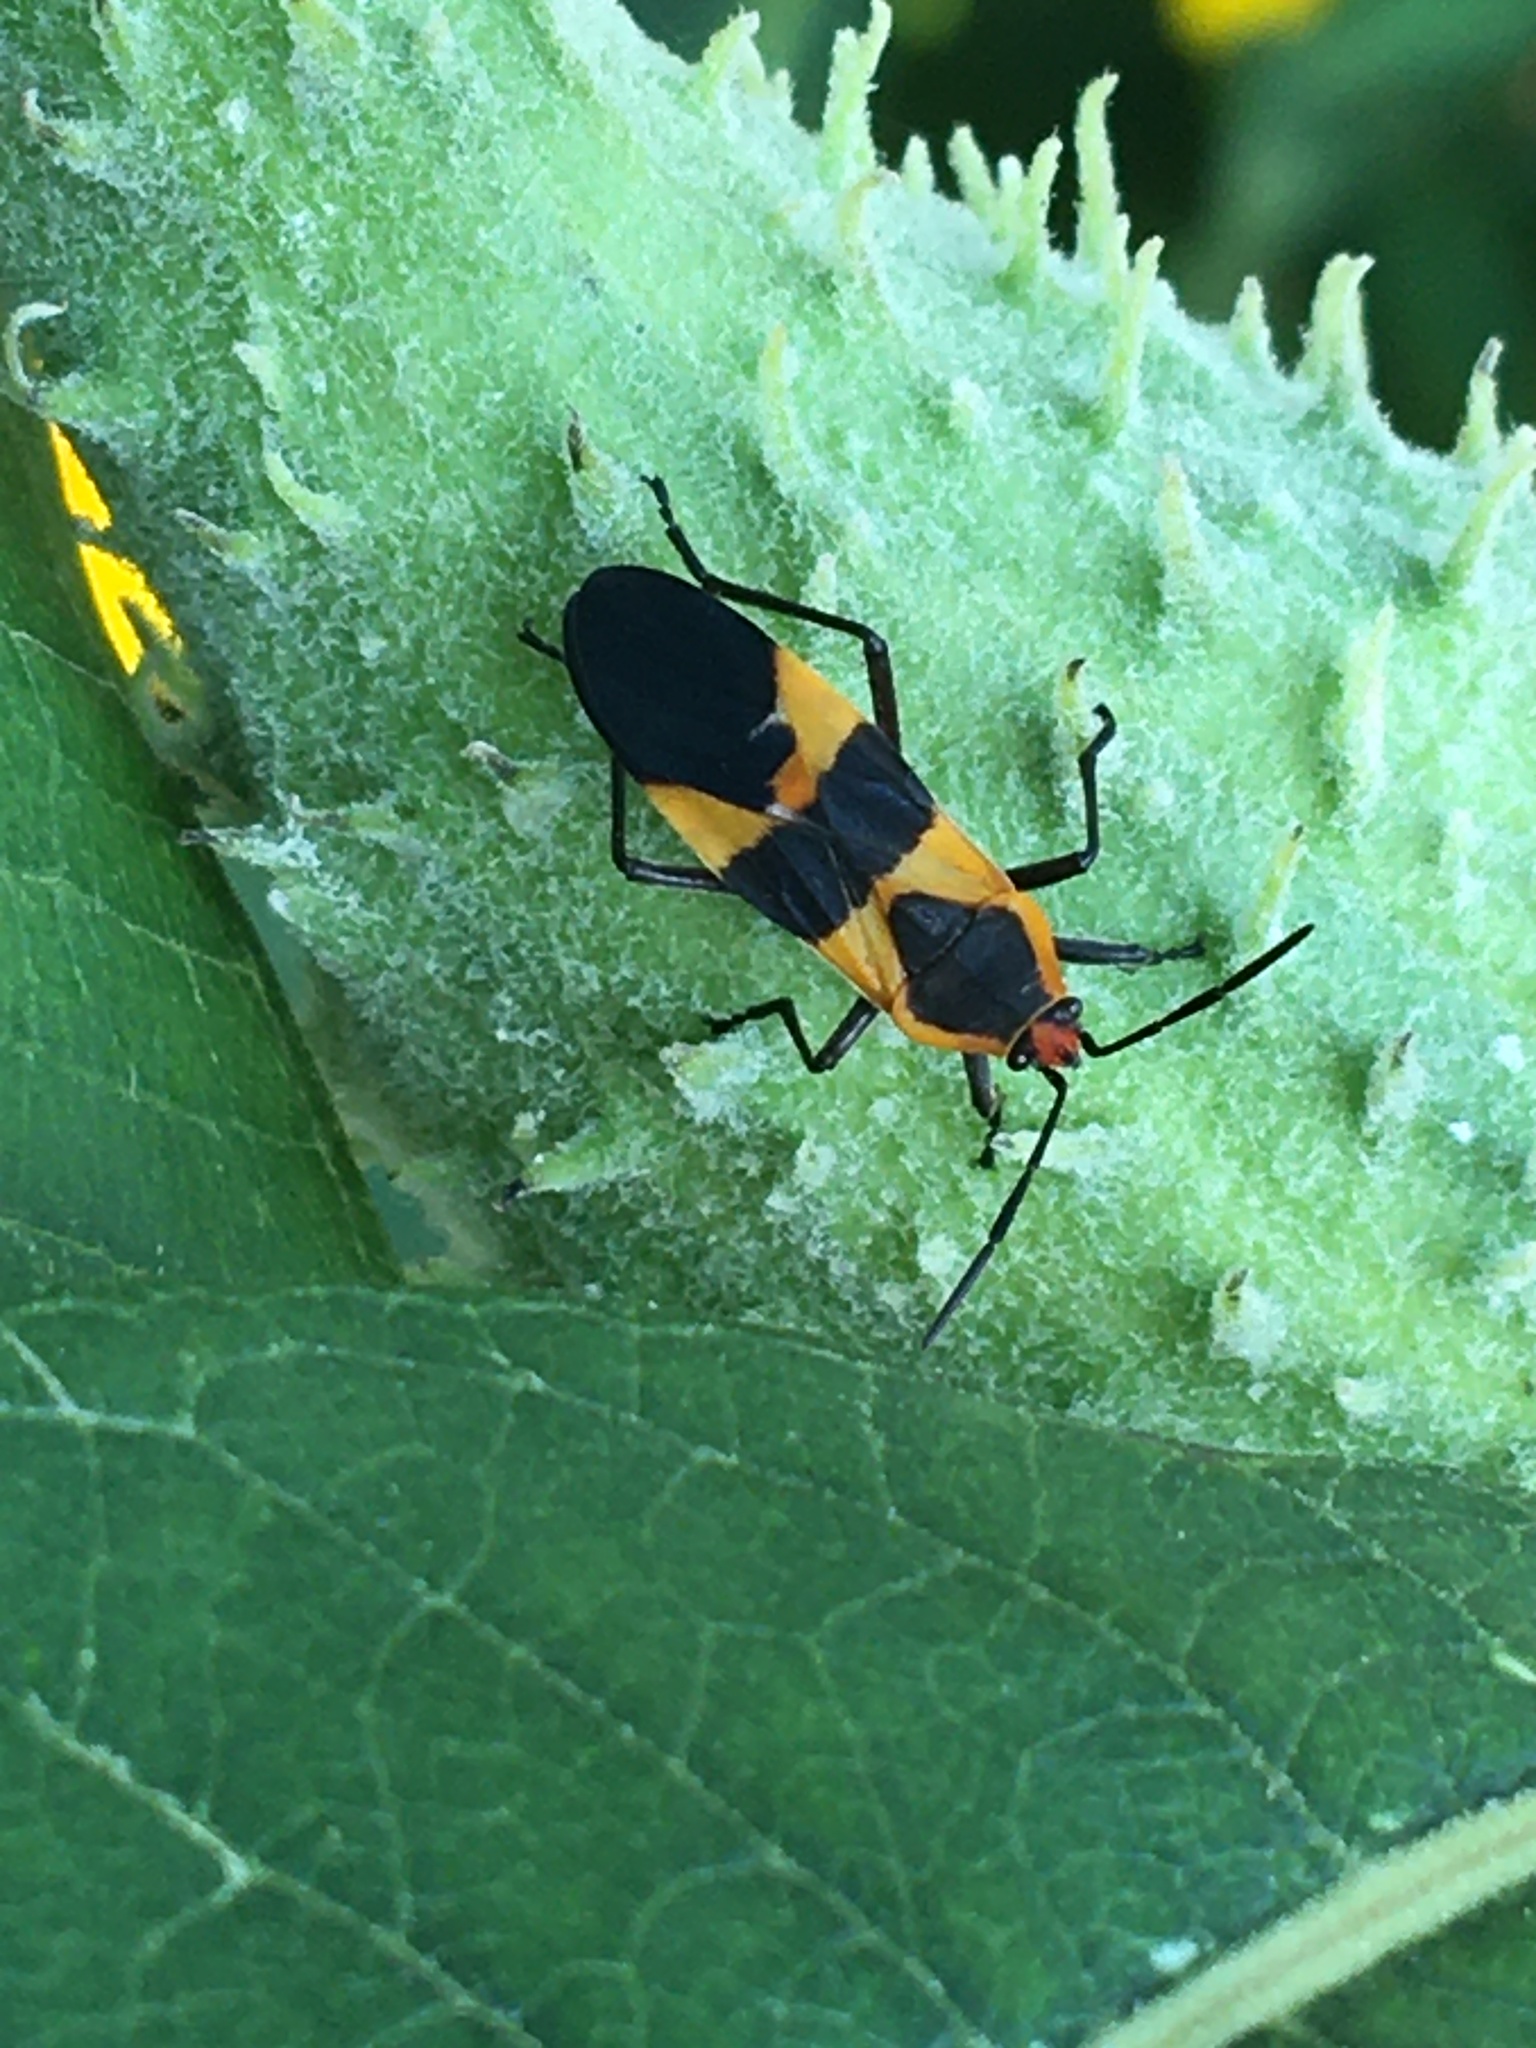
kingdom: Animalia
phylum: Arthropoda
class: Insecta
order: Hemiptera
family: Lygaeidae
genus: Oncopeltus
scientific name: Oncopeltus fasciatus
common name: Large milkweed bug
